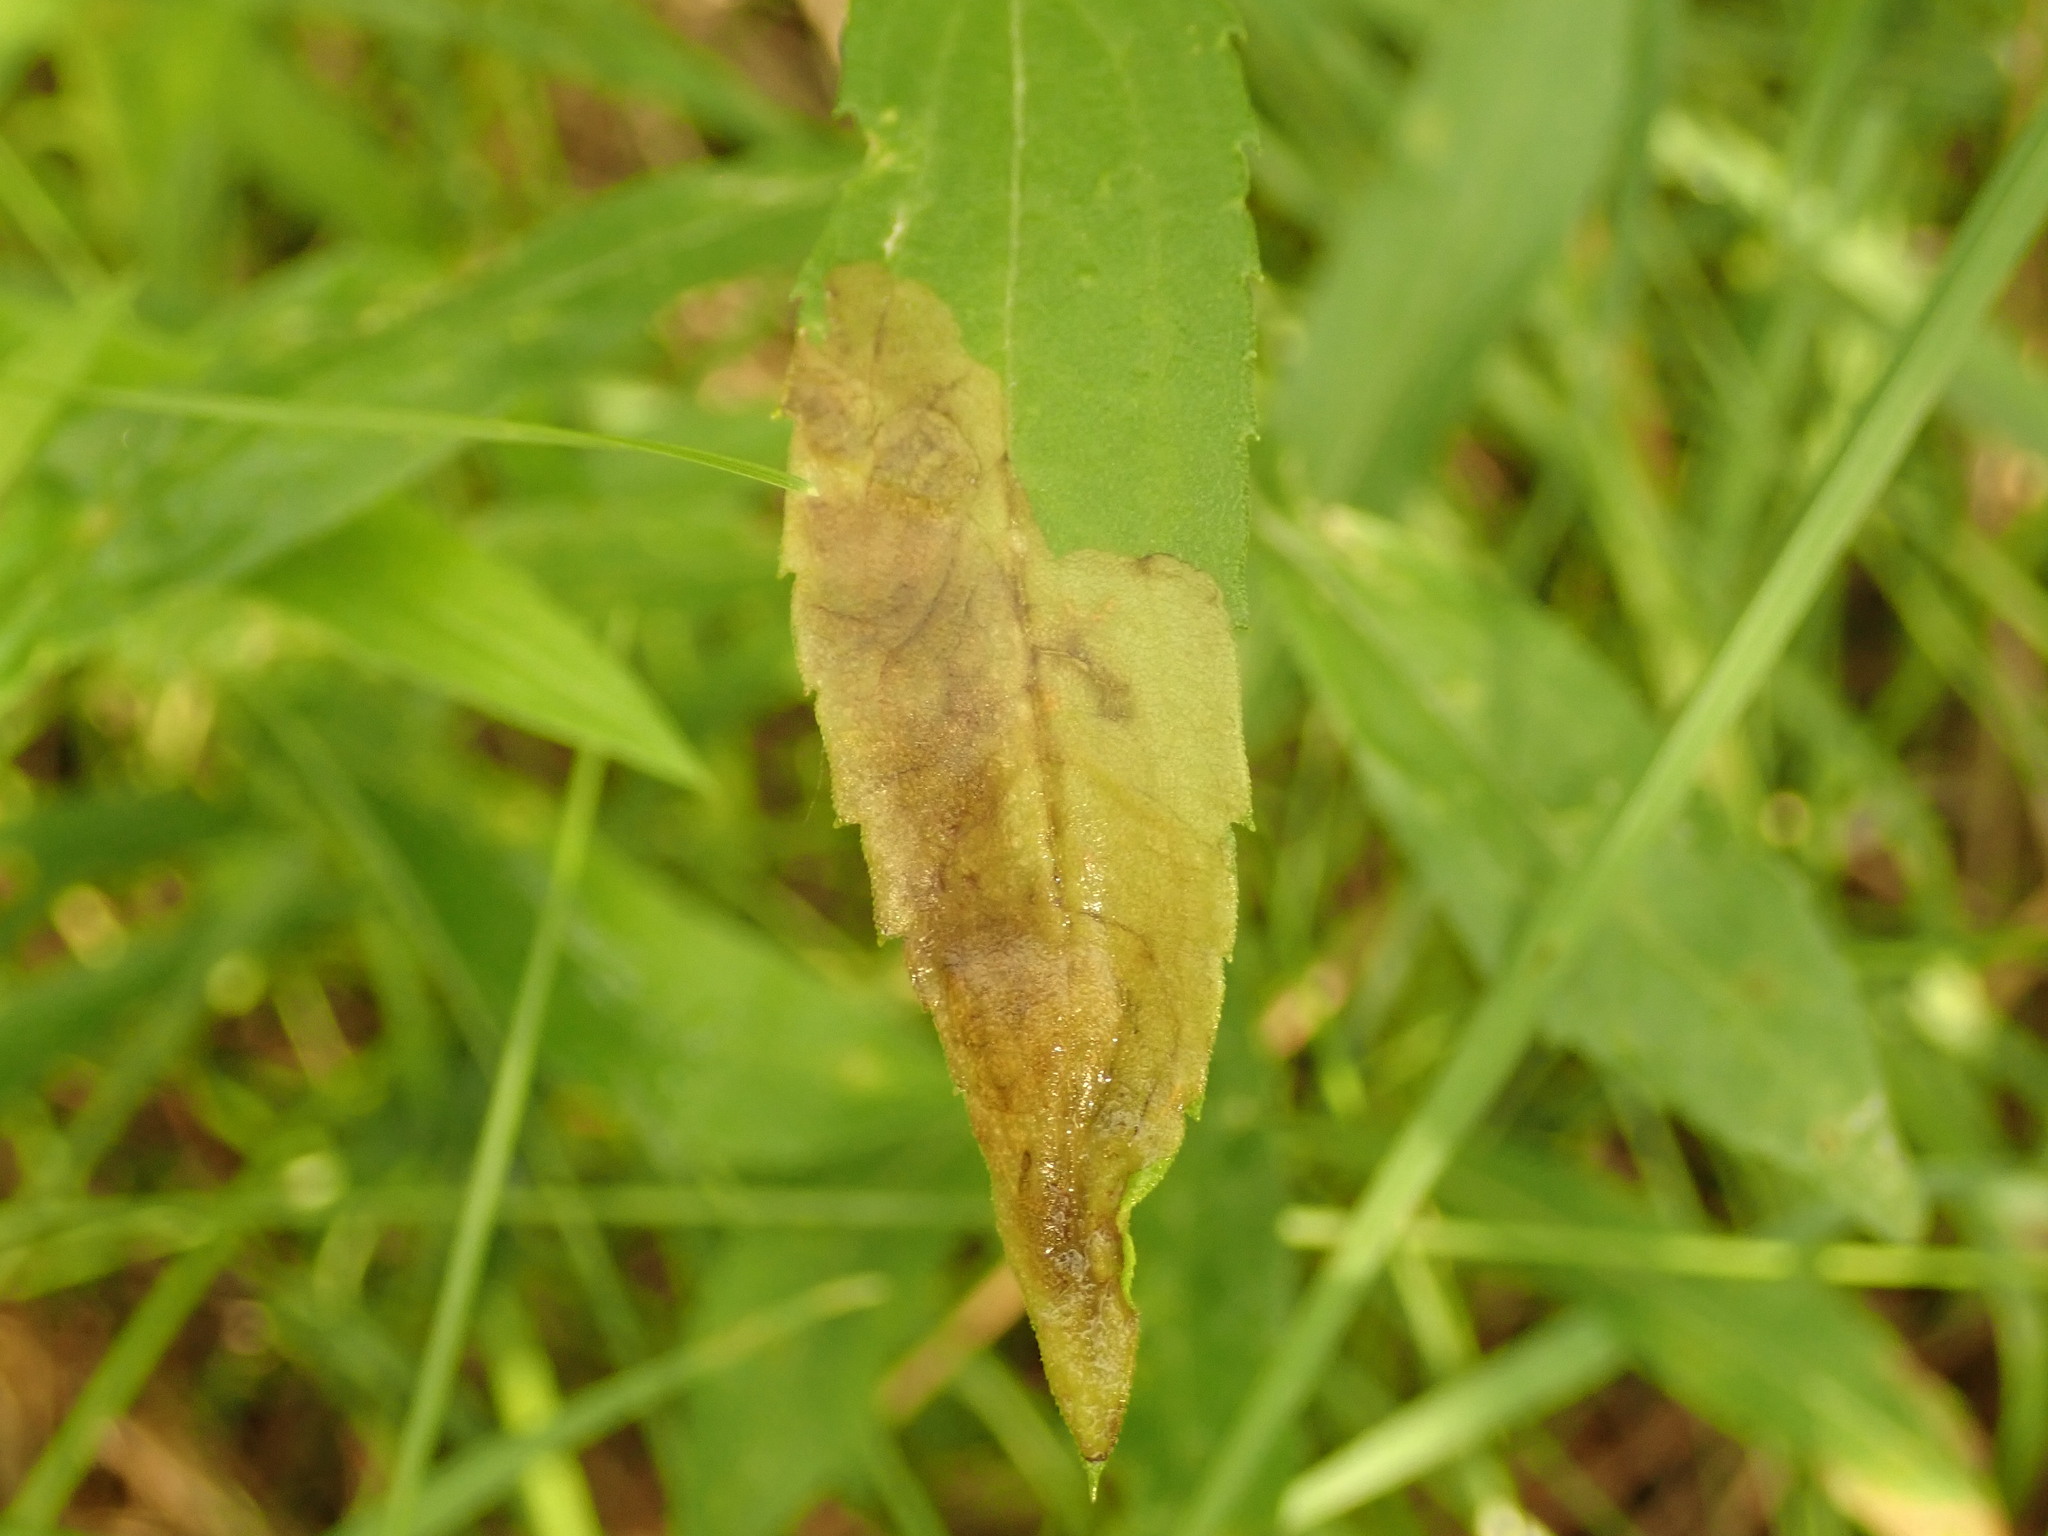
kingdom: Animalia
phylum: Arthropoda
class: Insecta
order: Diptera
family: Agromyzidae
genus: Nemorimyza
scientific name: Nemorimyza posticata
